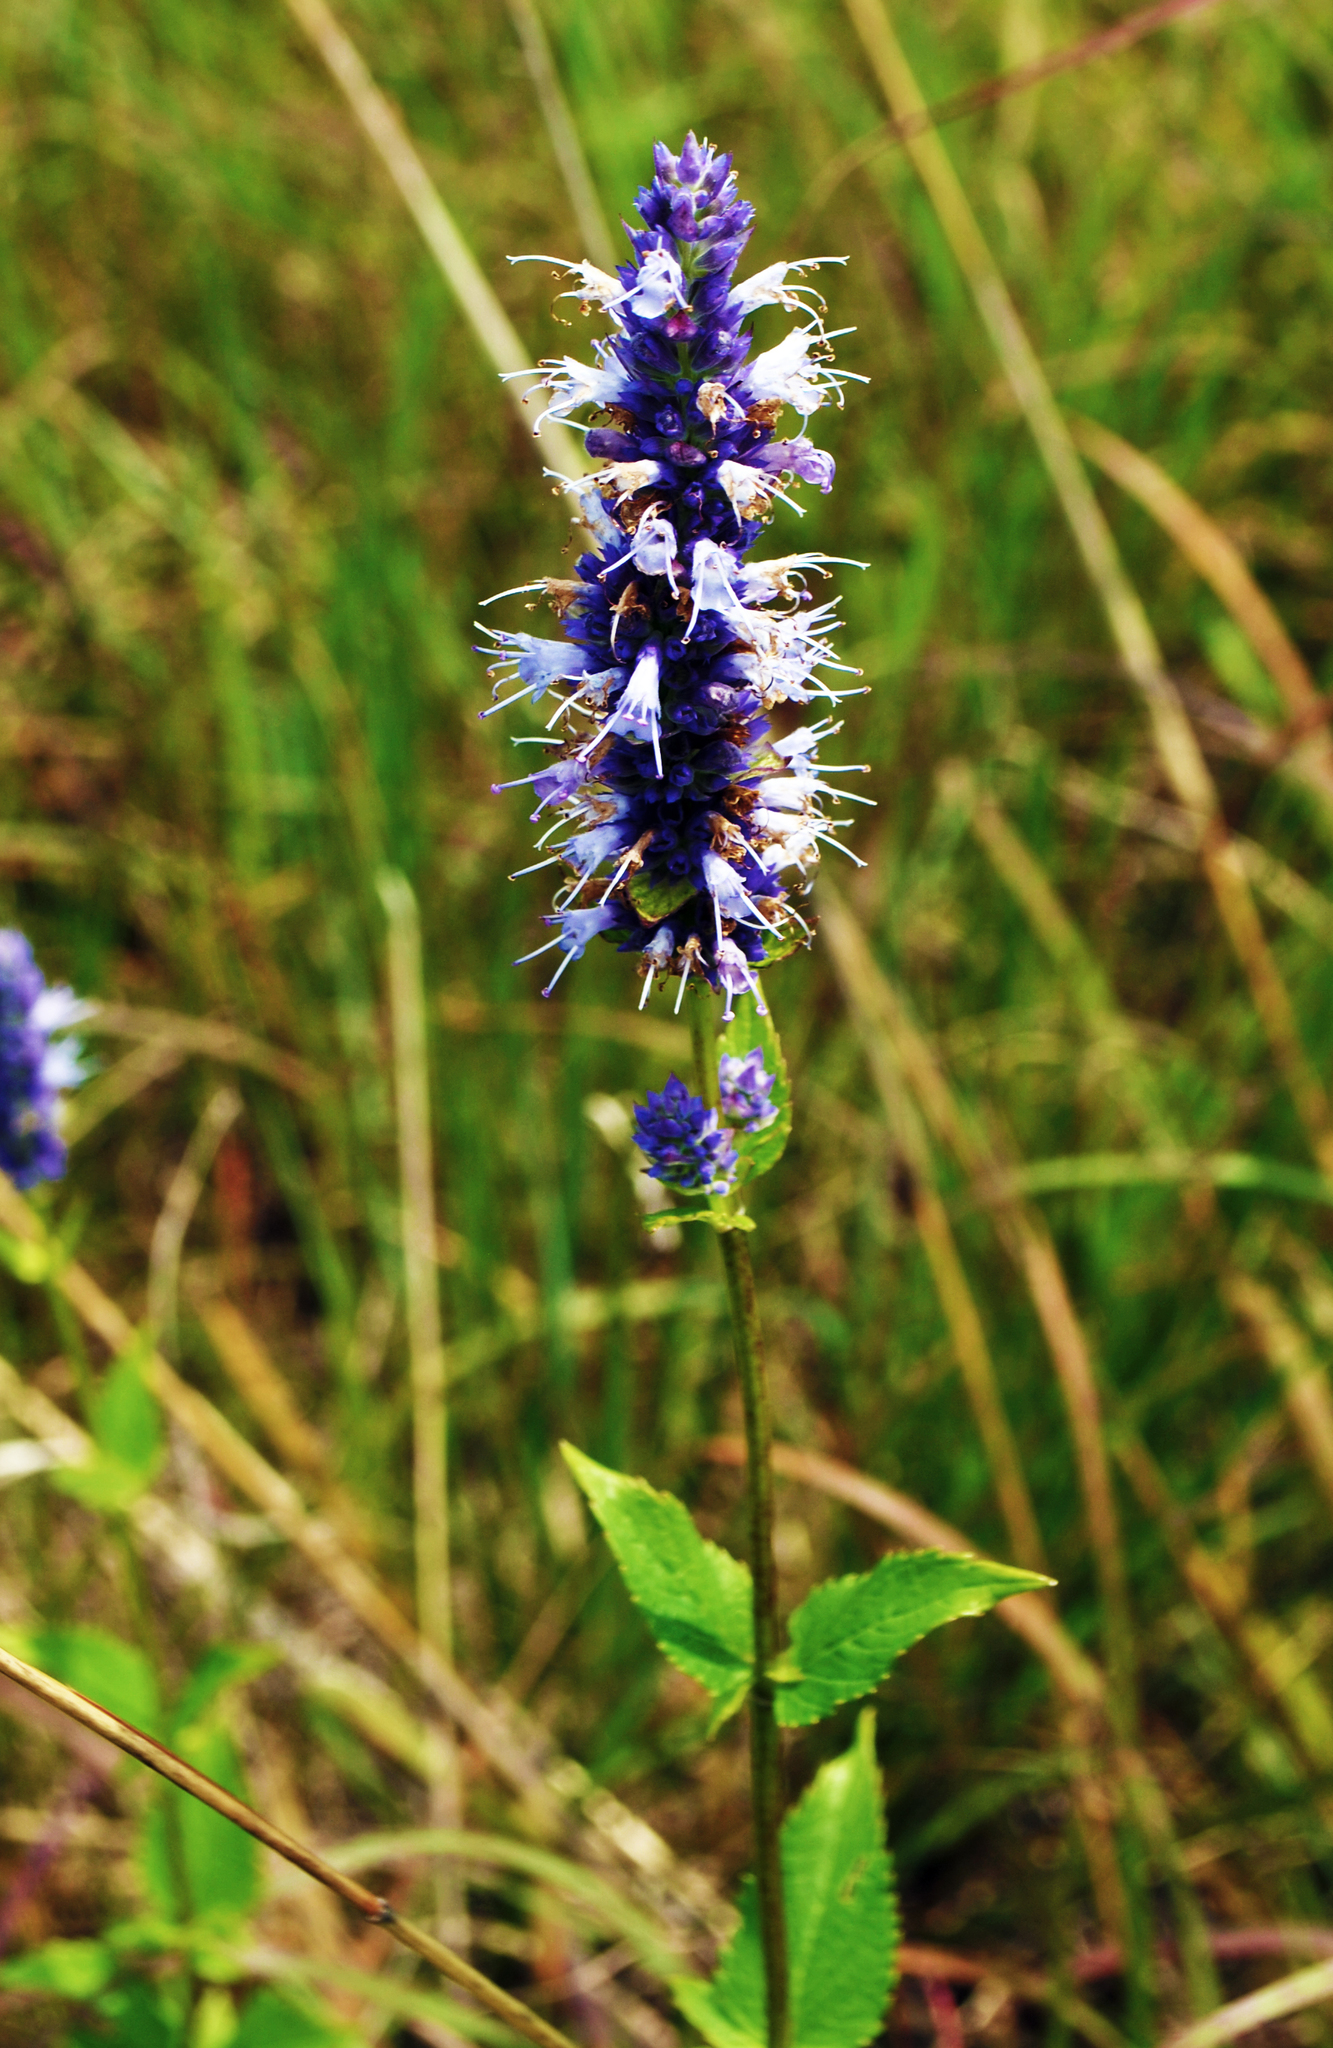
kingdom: Plantae
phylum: Tracheophyta
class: Magnoliopsida
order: Lamiales
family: Lamiaceae
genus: Agastache
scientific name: Agastache foeniculum
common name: Anise hyssop
